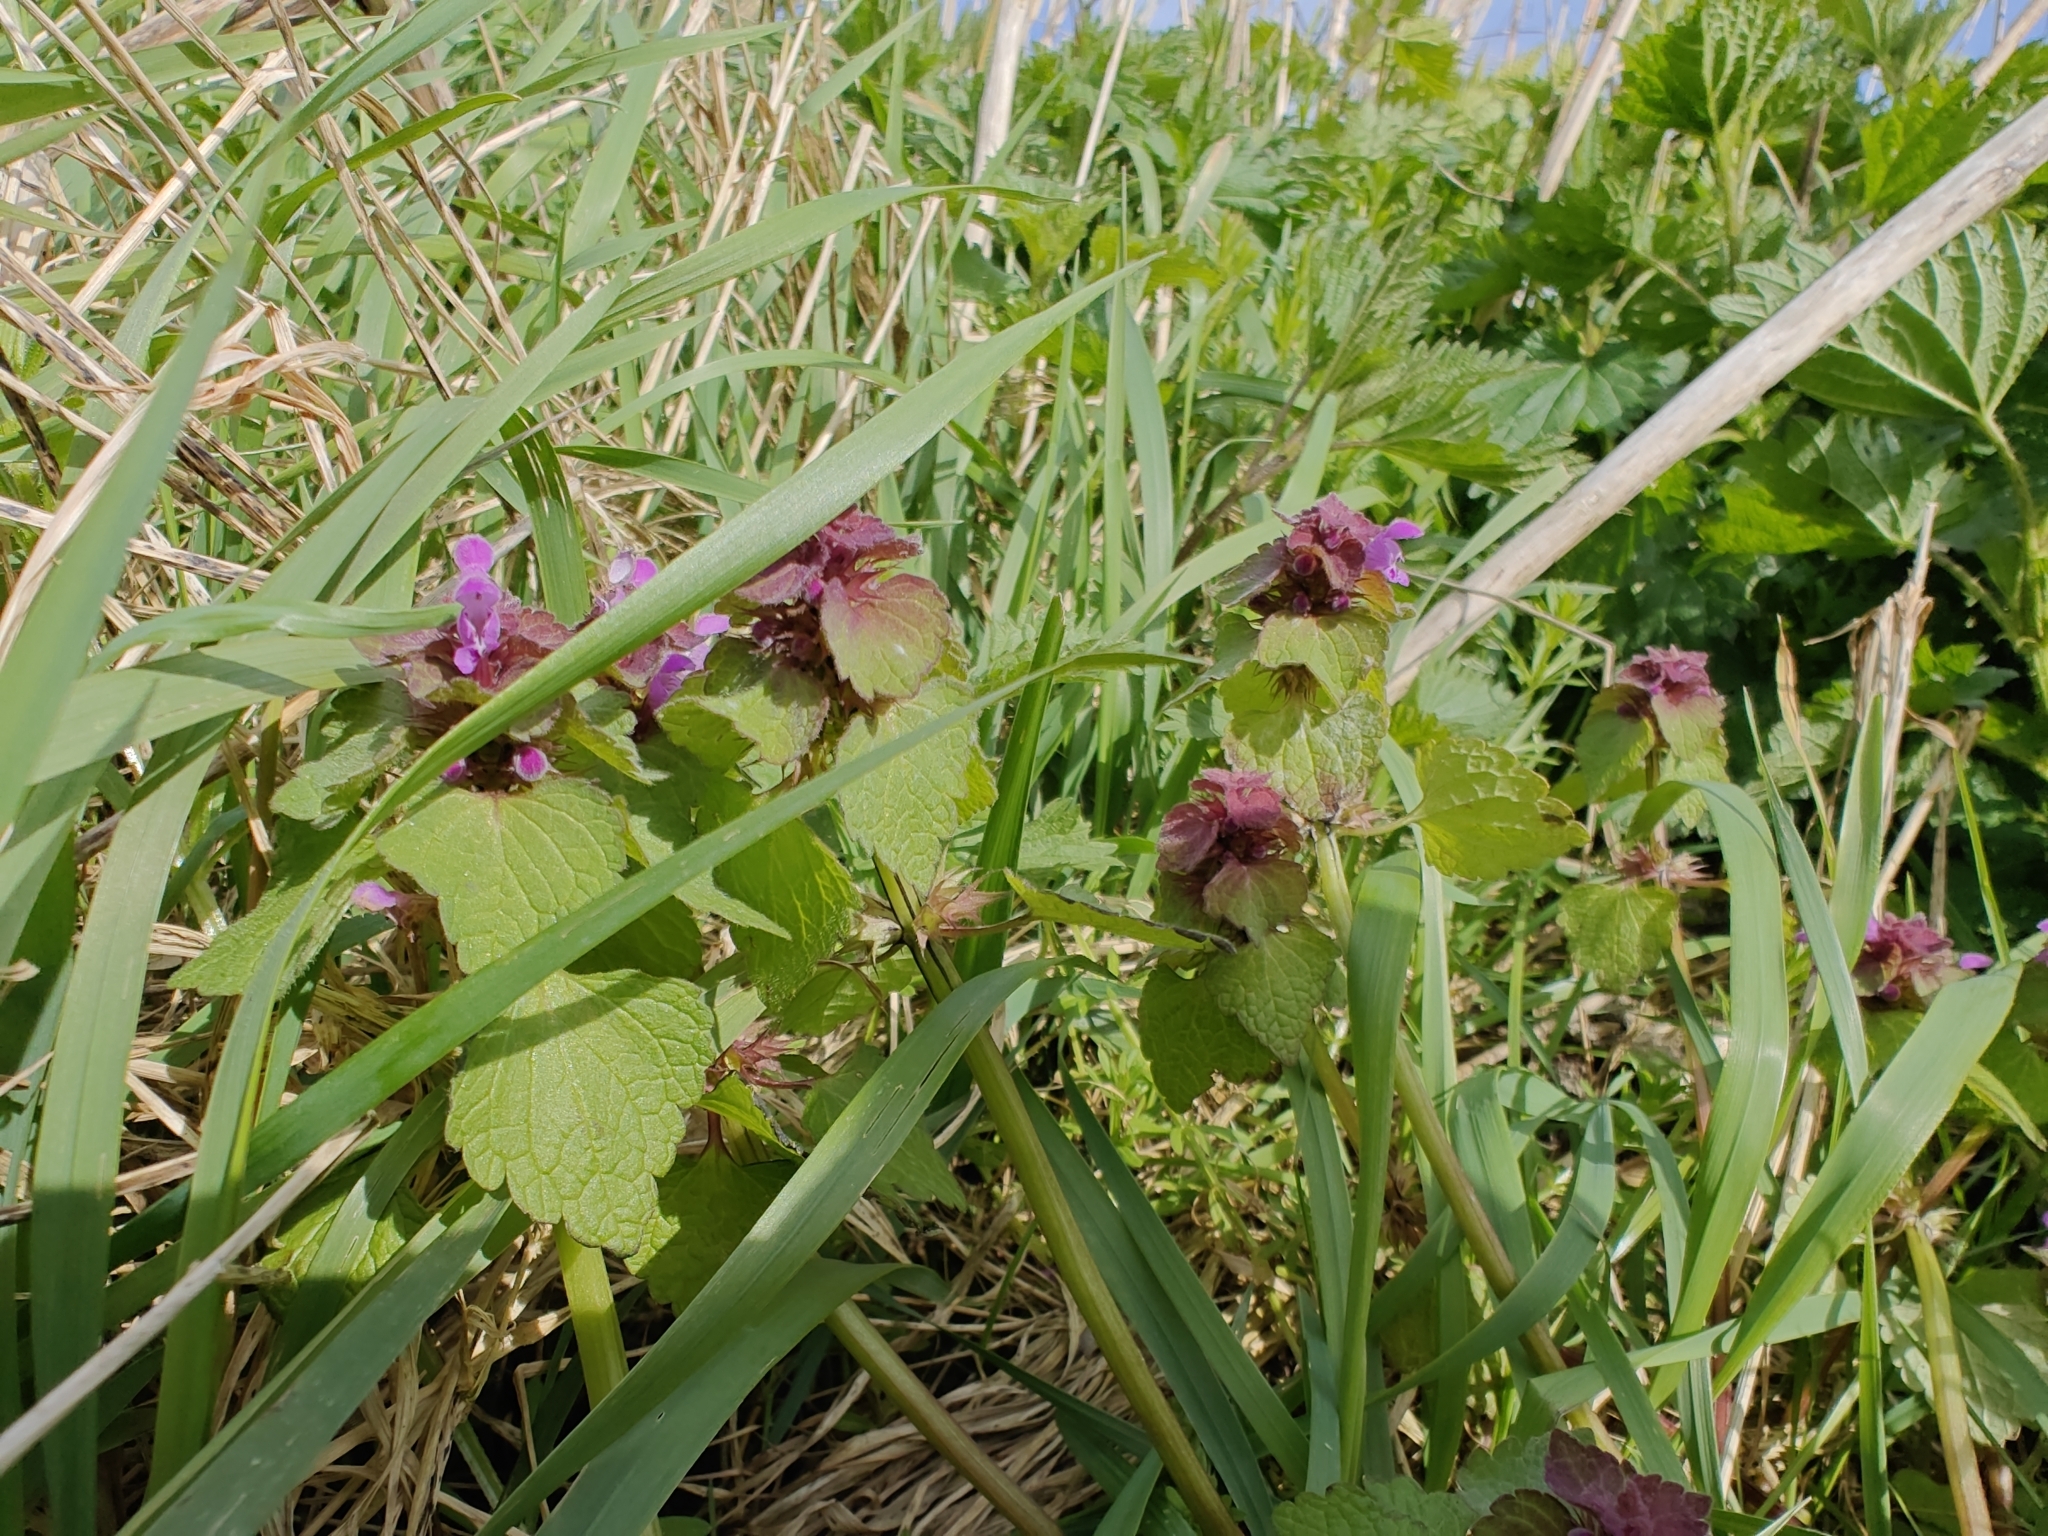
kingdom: Plantae
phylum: Tracheophyta
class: Magnoliopsida
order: Lamiales
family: Lamiaceae
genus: Lamium
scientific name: Lamium purpureum
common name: Red dead-nettle
